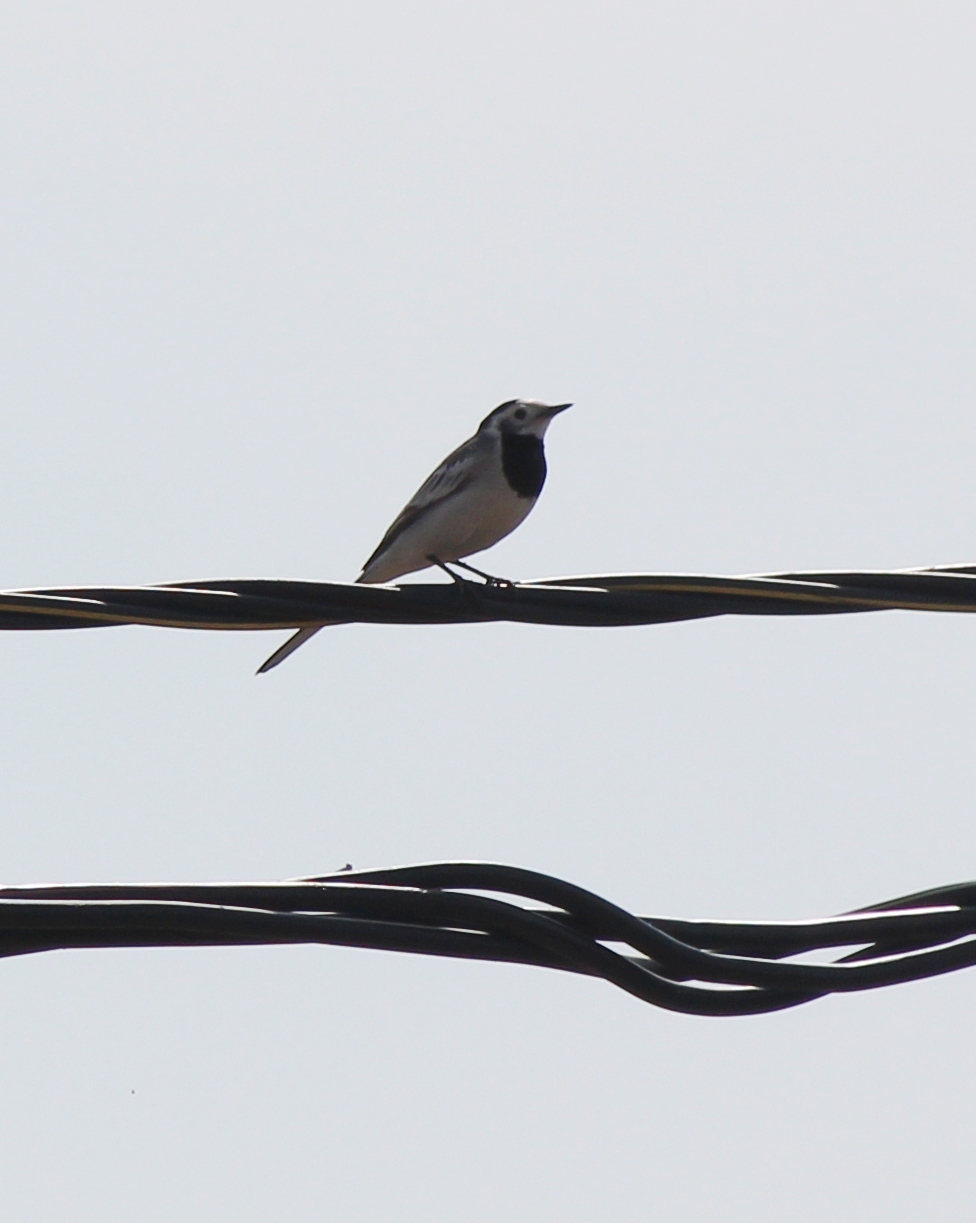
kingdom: Animalia
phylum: Chordata
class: Aves
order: Passeriformes
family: Motacillidae
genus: Motacilla
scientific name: Motacilla alba
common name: White wagtail
